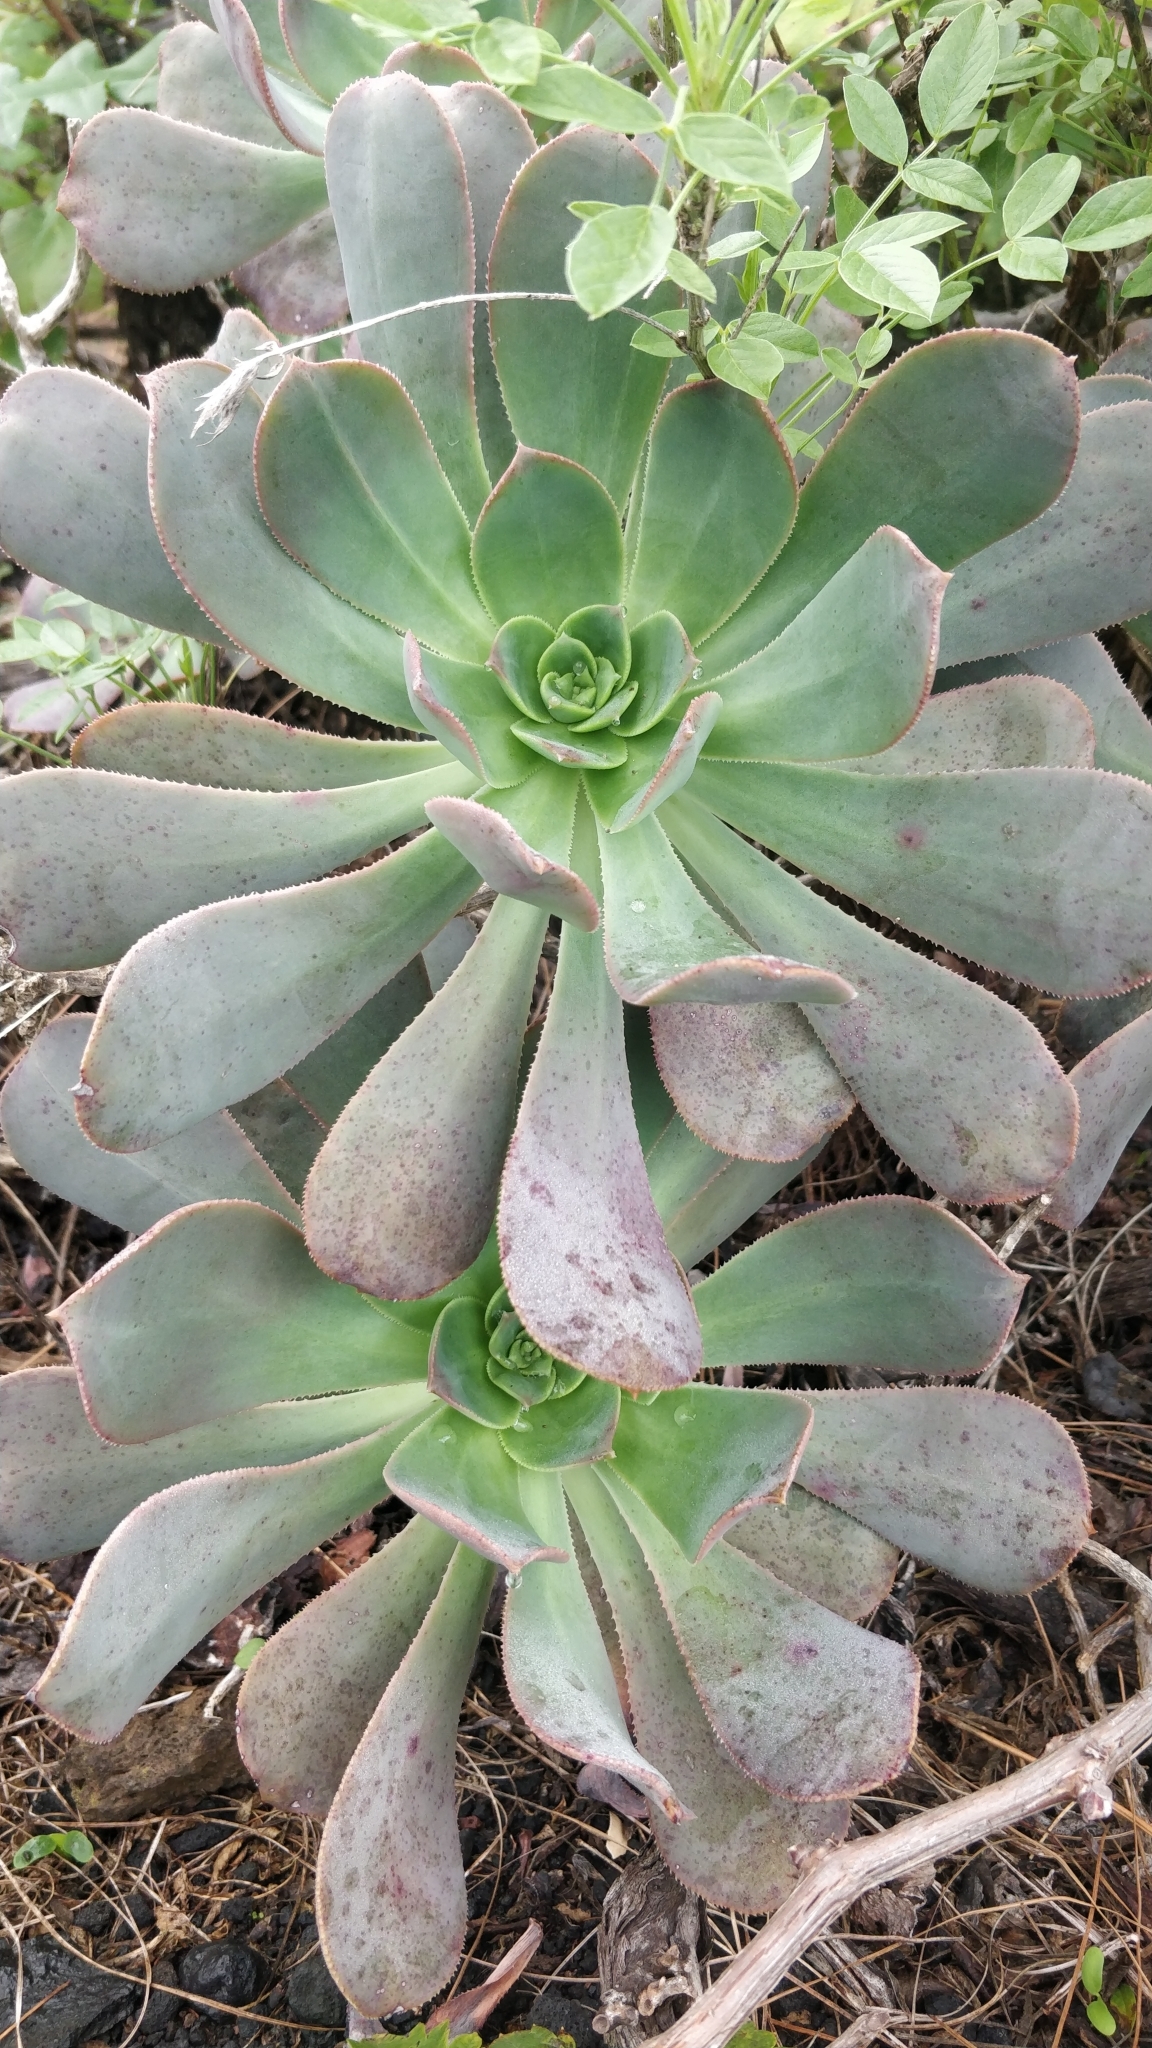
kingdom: Plantae
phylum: Tracheophyta
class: Magnoliopsida
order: Saxifragales
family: Crassulaceae
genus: Aeonium
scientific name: Aeonium davidbramwellii
